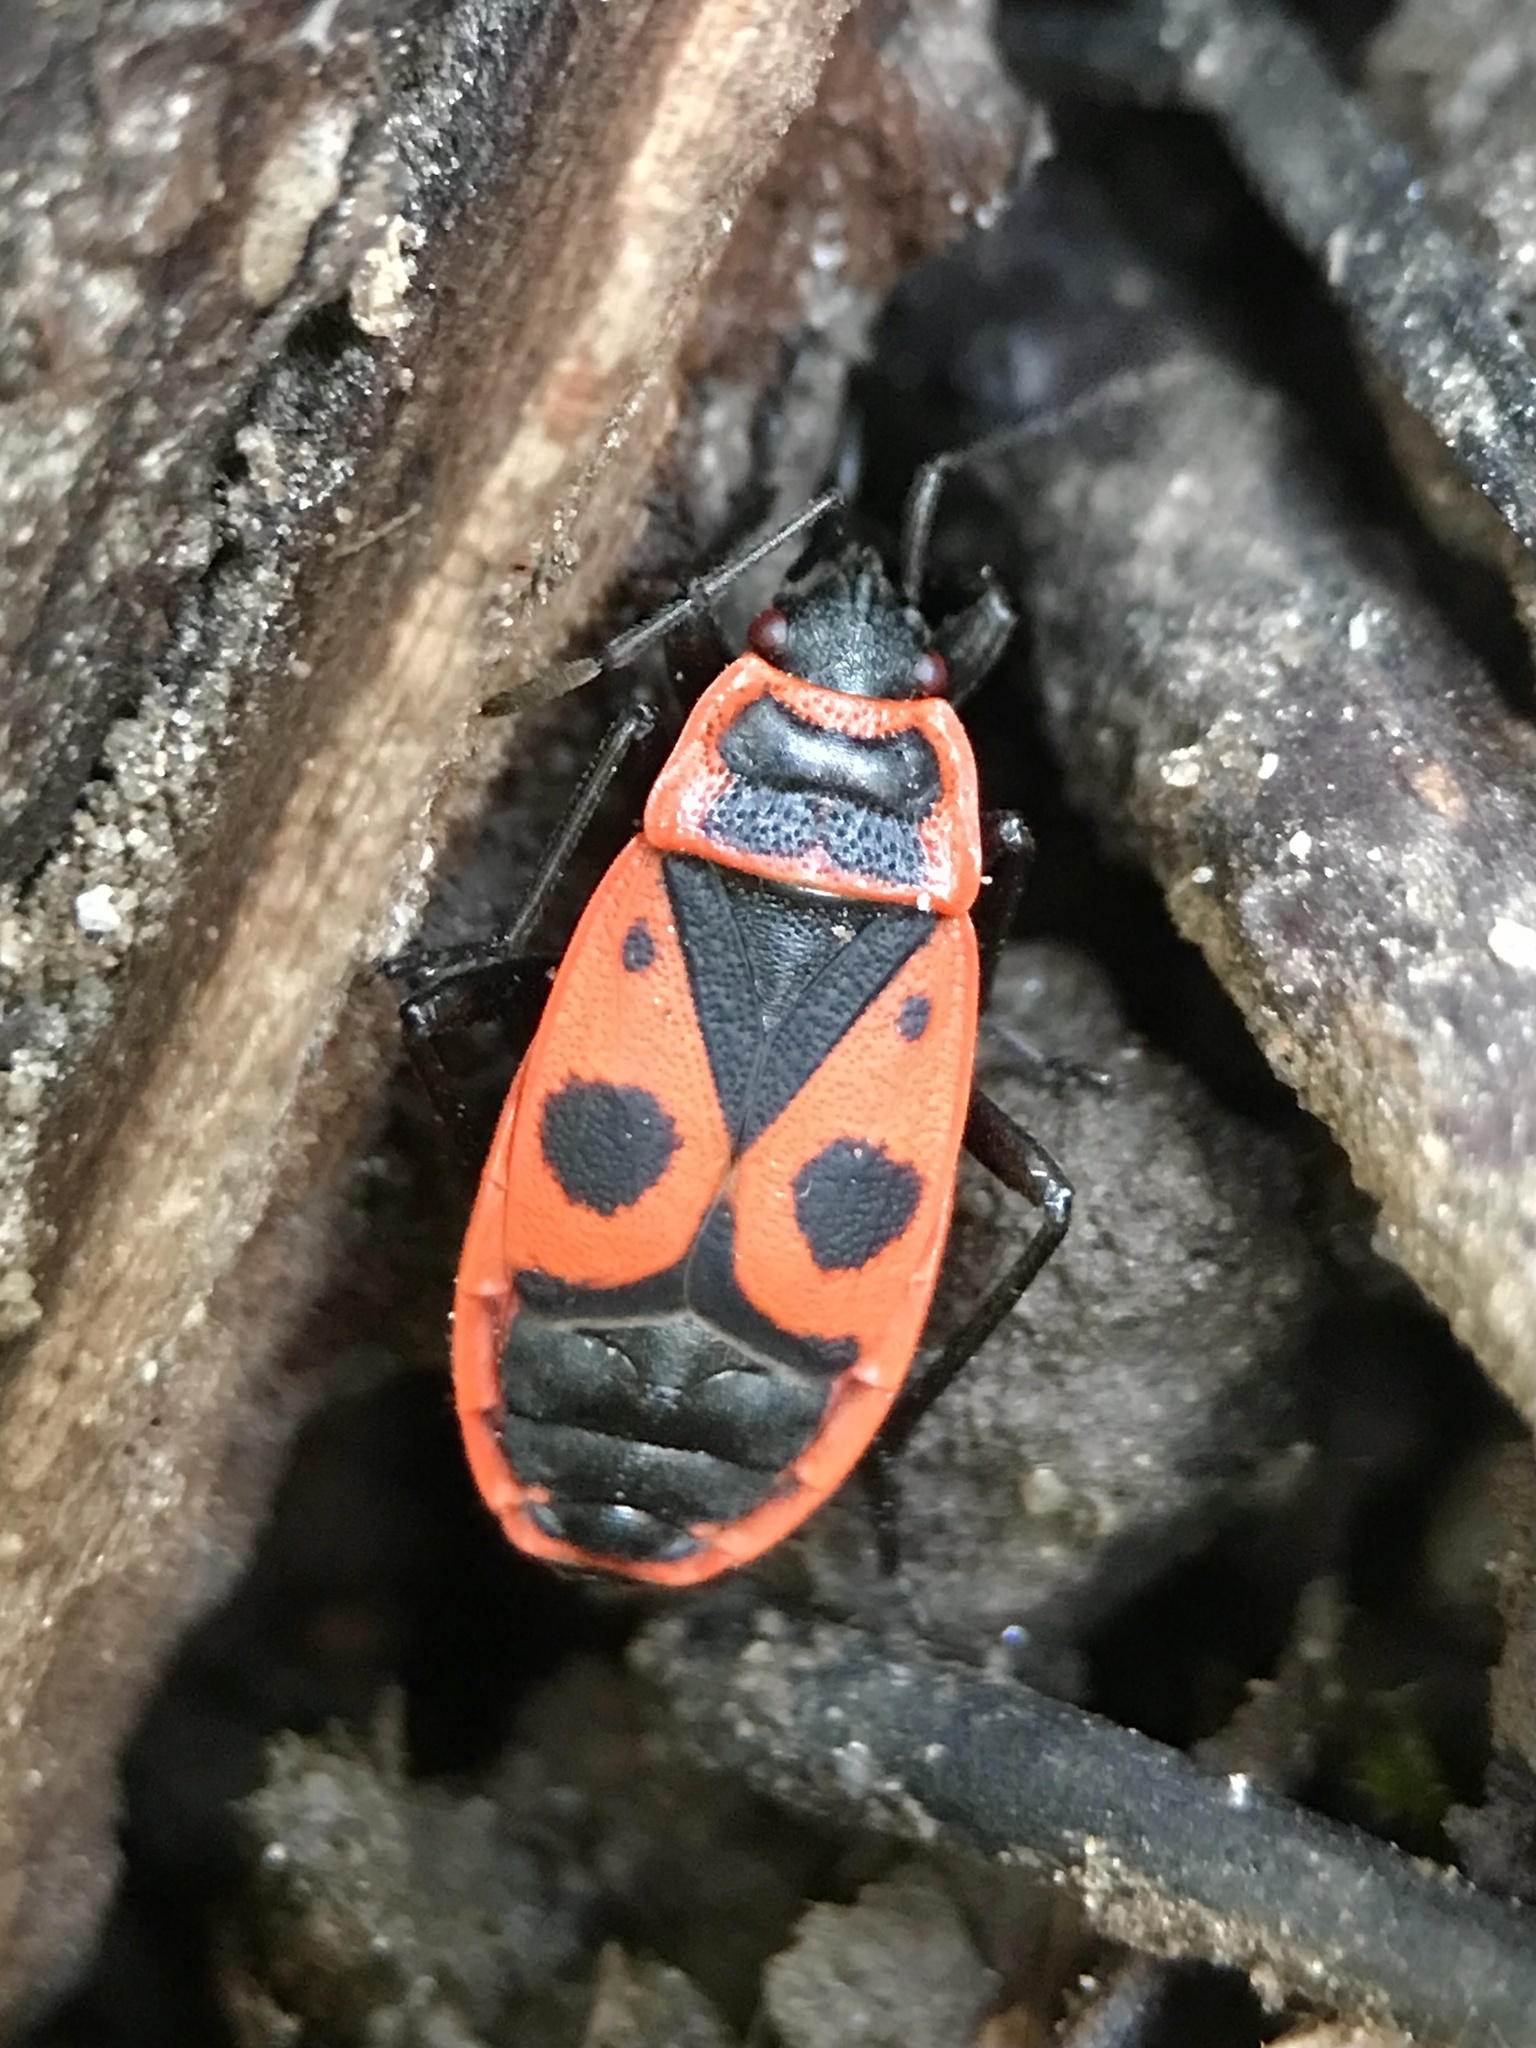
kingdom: Animalia
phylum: Arthropoda
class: Insecta
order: Hemiptera
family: Pyrrhocoridae
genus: Pyrrhocoris
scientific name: Pyrrhocoris apterus
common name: Firebug
